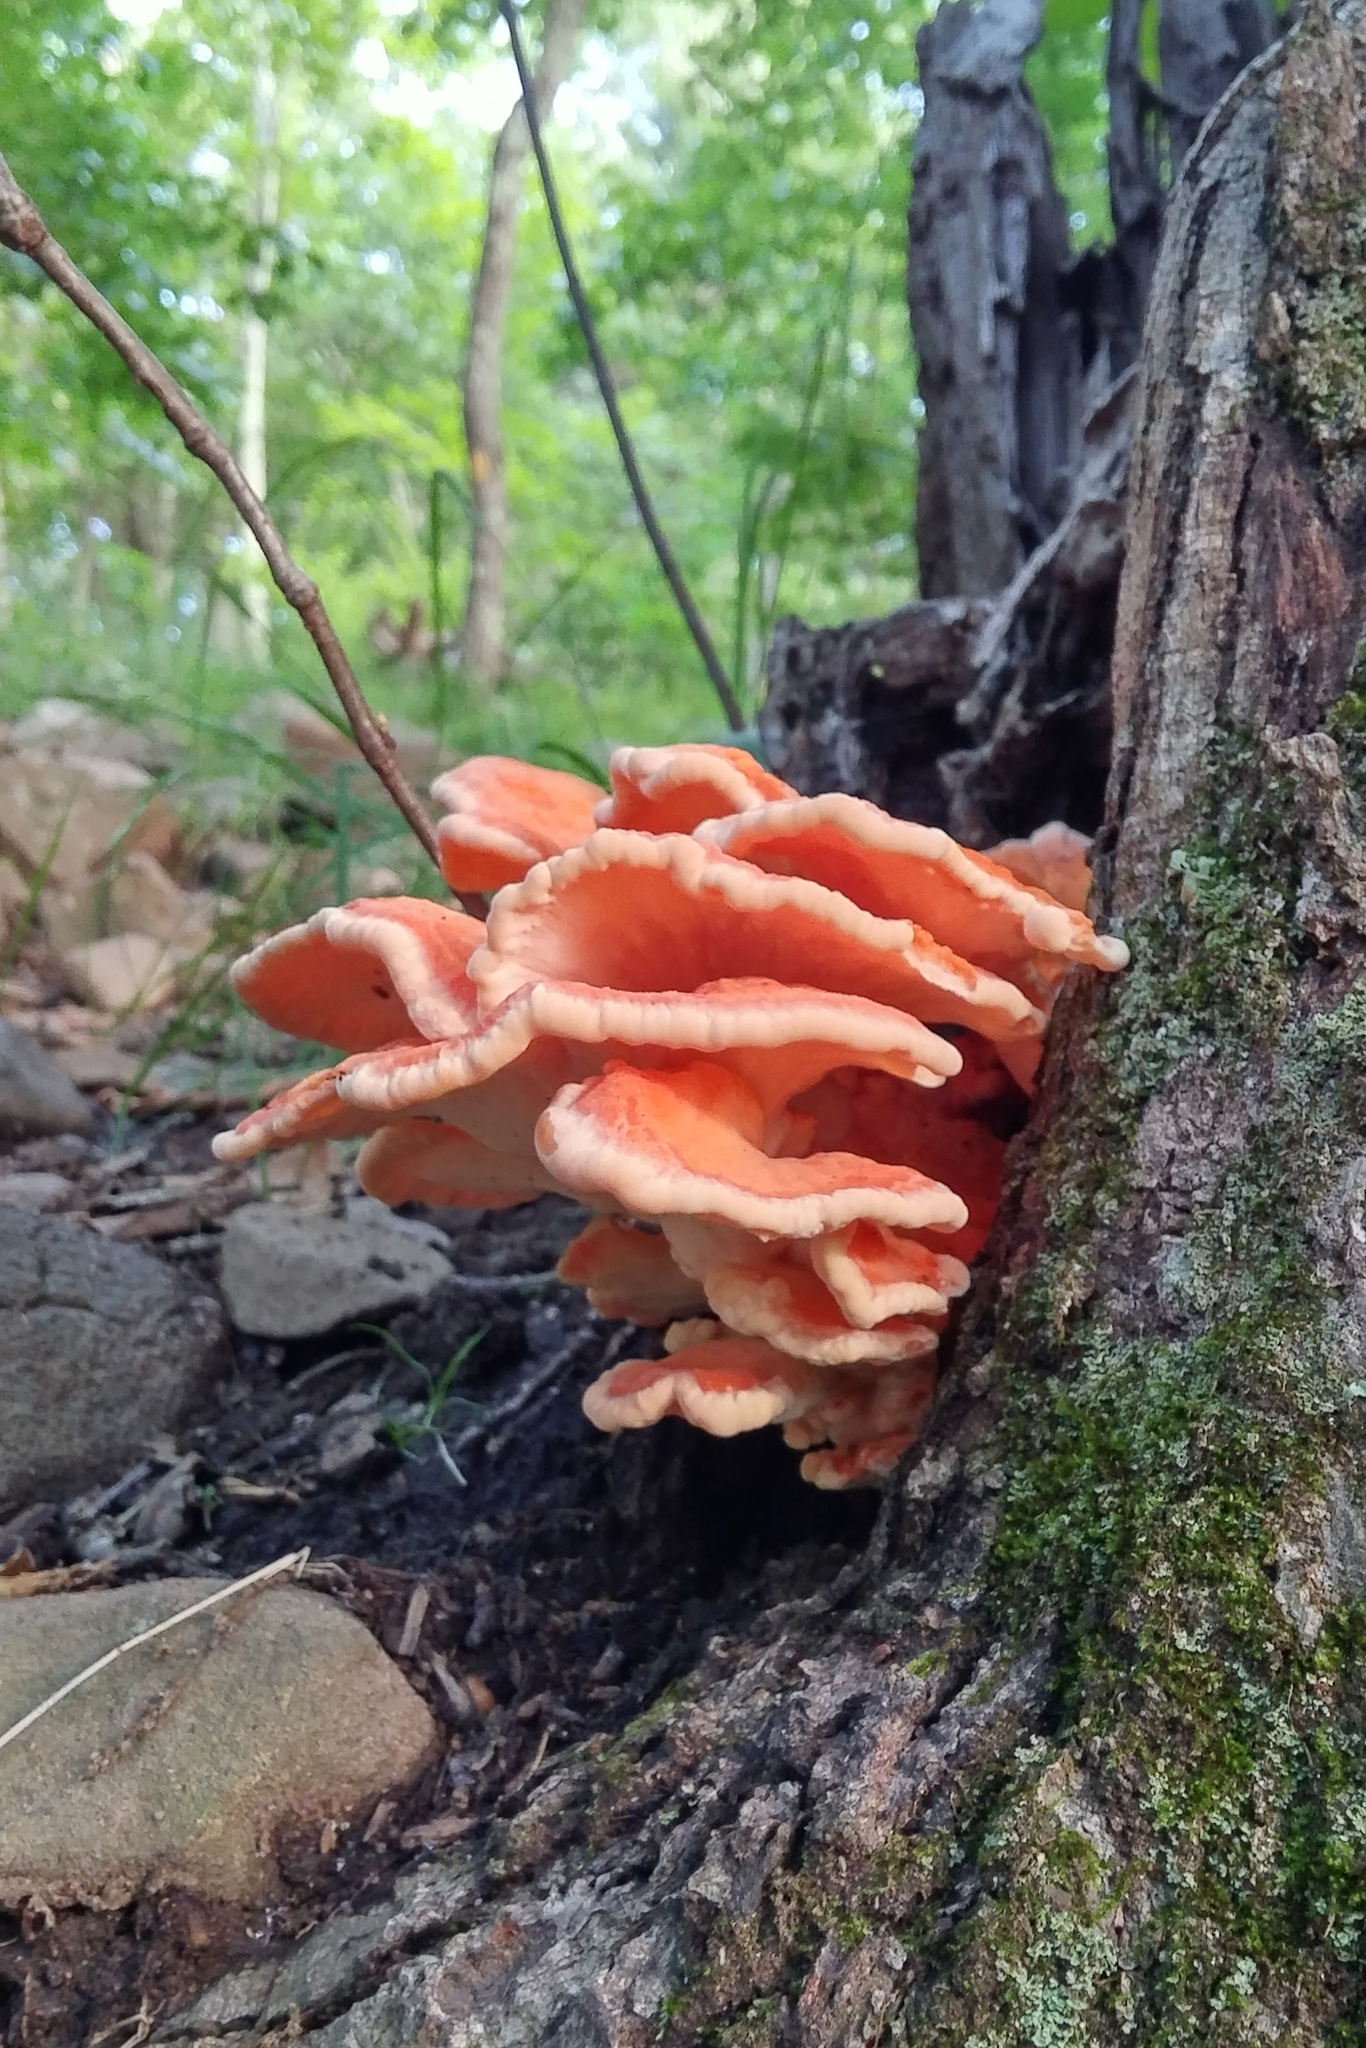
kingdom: Fungi
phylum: Basidiomycota
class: Agaricomycetes
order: Polyporales
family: Laetiporaceae
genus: Laetiporus
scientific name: Laetiporus sulphureus
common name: Chicken of the woods
